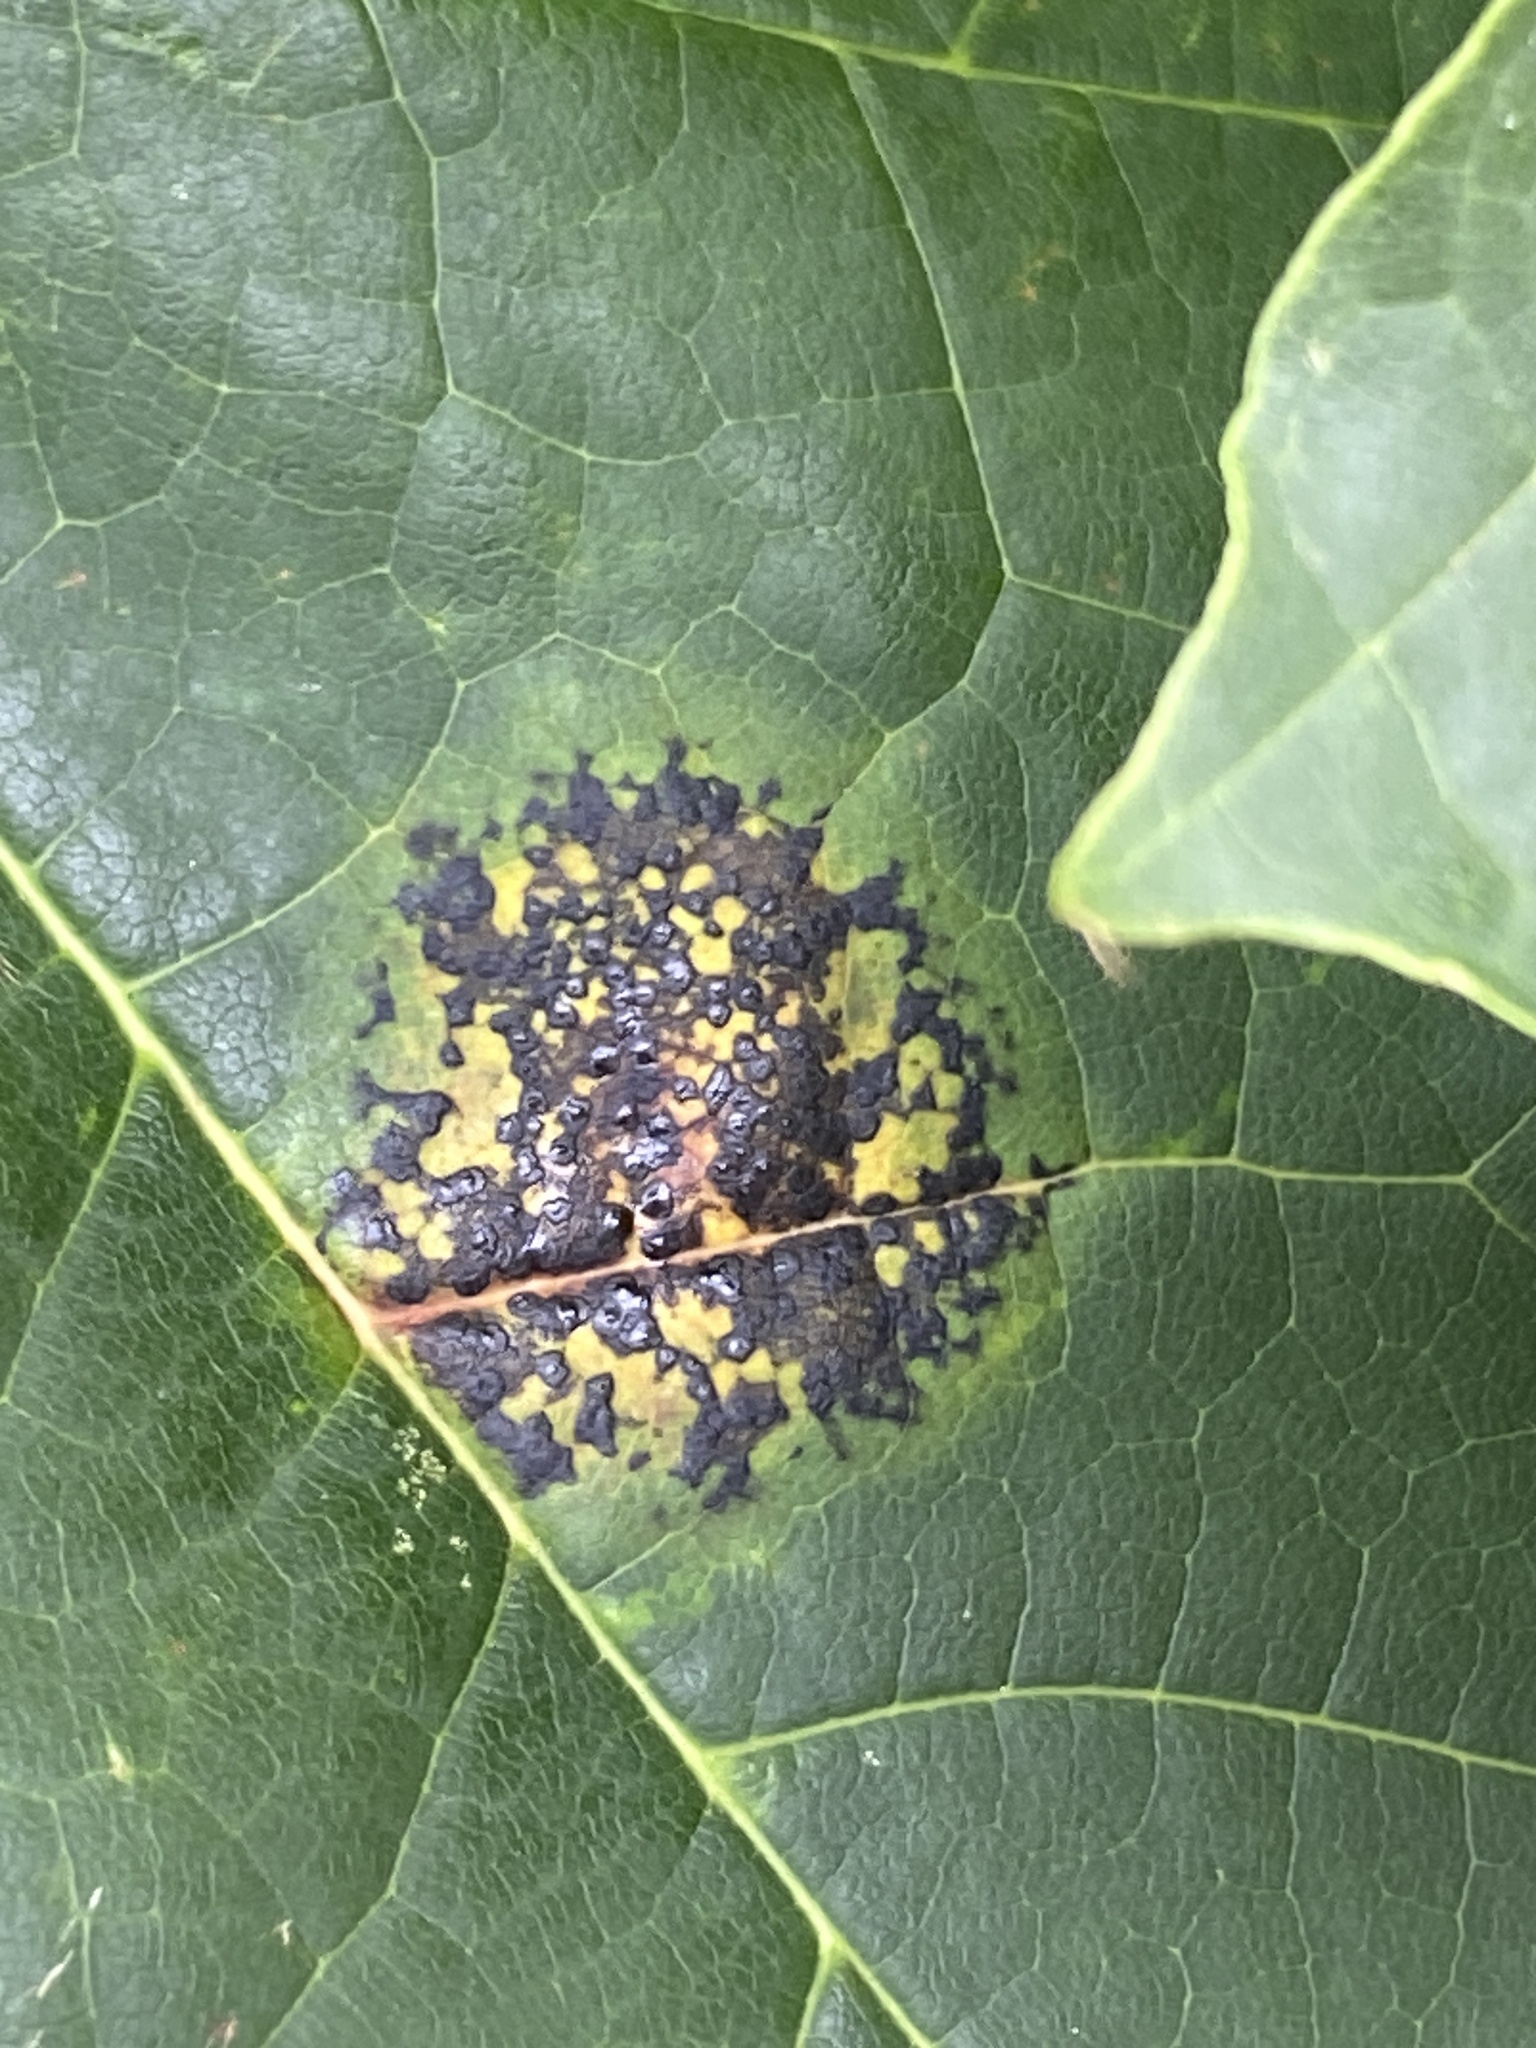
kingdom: Fungi
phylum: Ascomycota
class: Leotiomycetes
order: Rhytismatales
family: Rhytismataceae
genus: Rhytisma
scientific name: Rhytisma acerinum
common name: European tar spot
